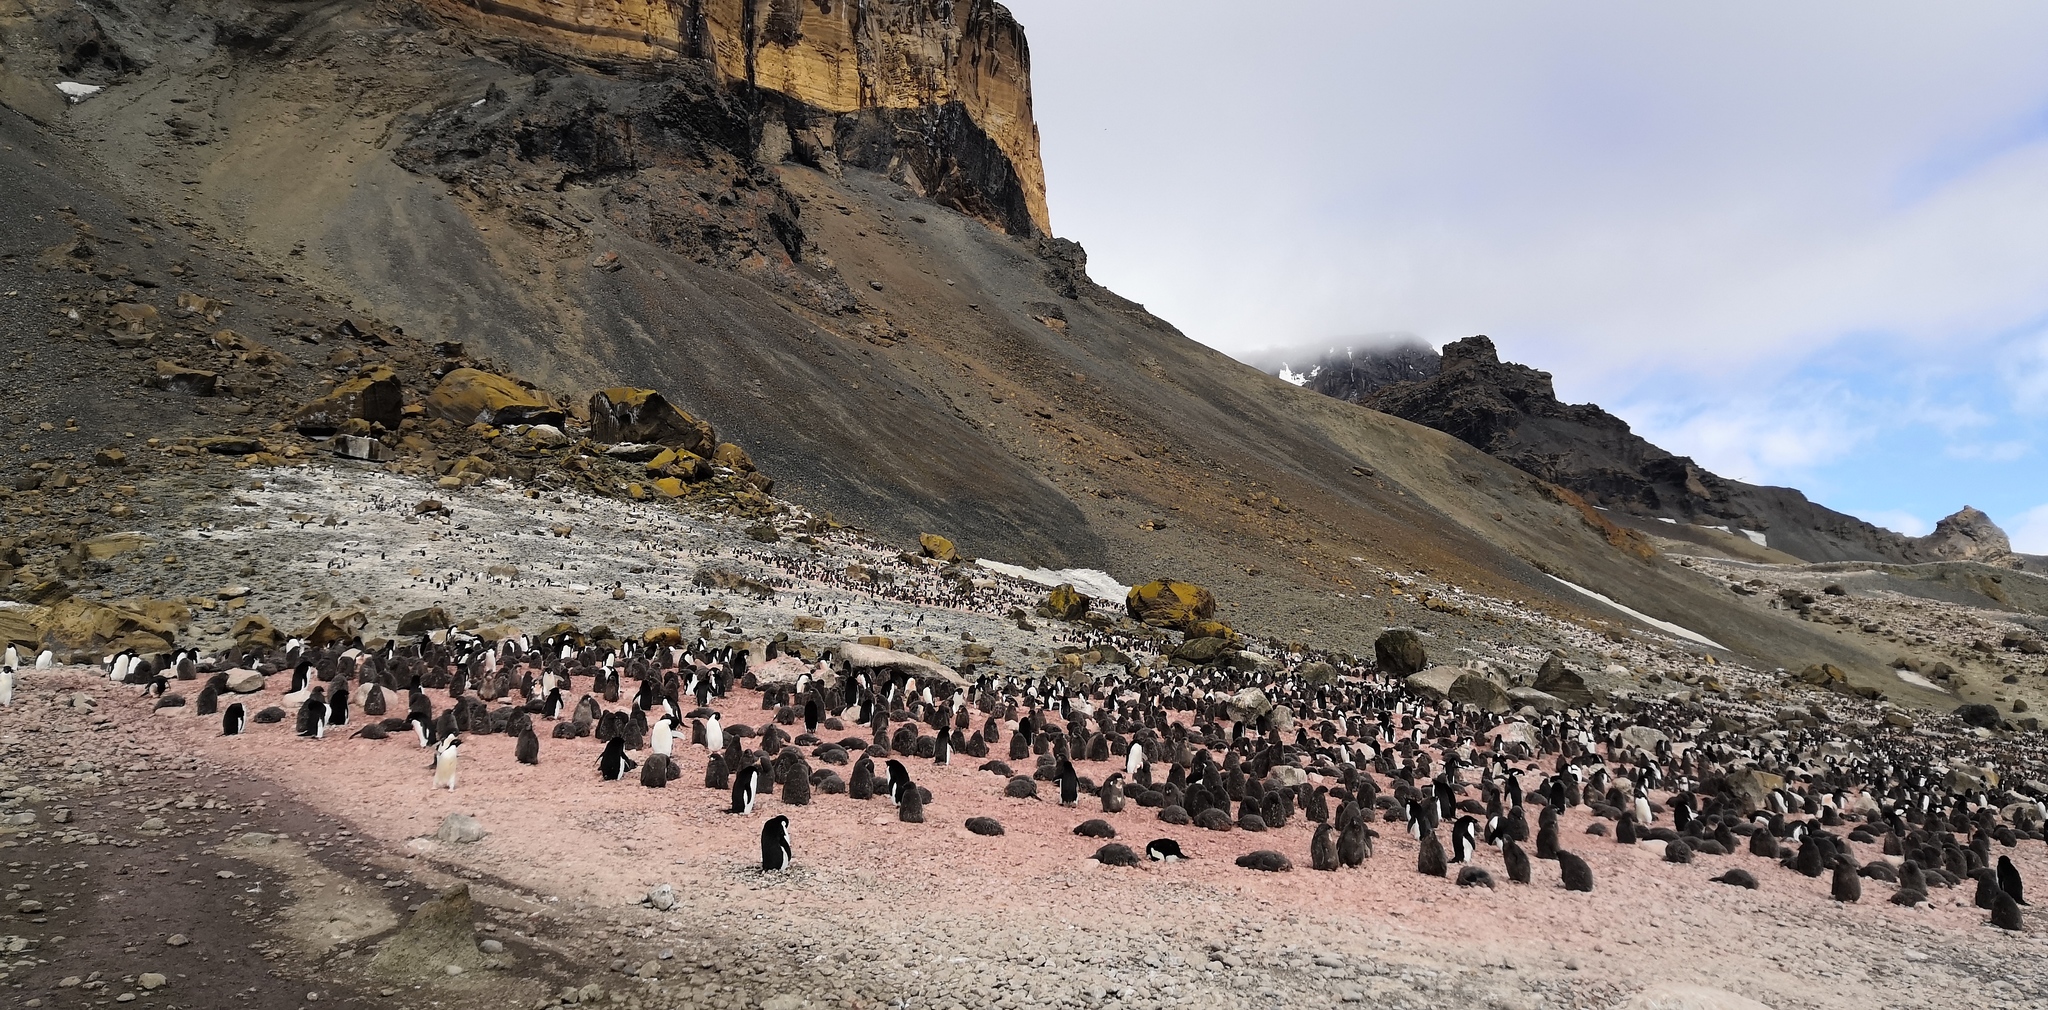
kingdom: Animalia
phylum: Chordata
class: Aves
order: Sphenisciformes
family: Spheniscidae
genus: Pygoscelis
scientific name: Pygoscelis adeliae
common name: Adelie penguin
